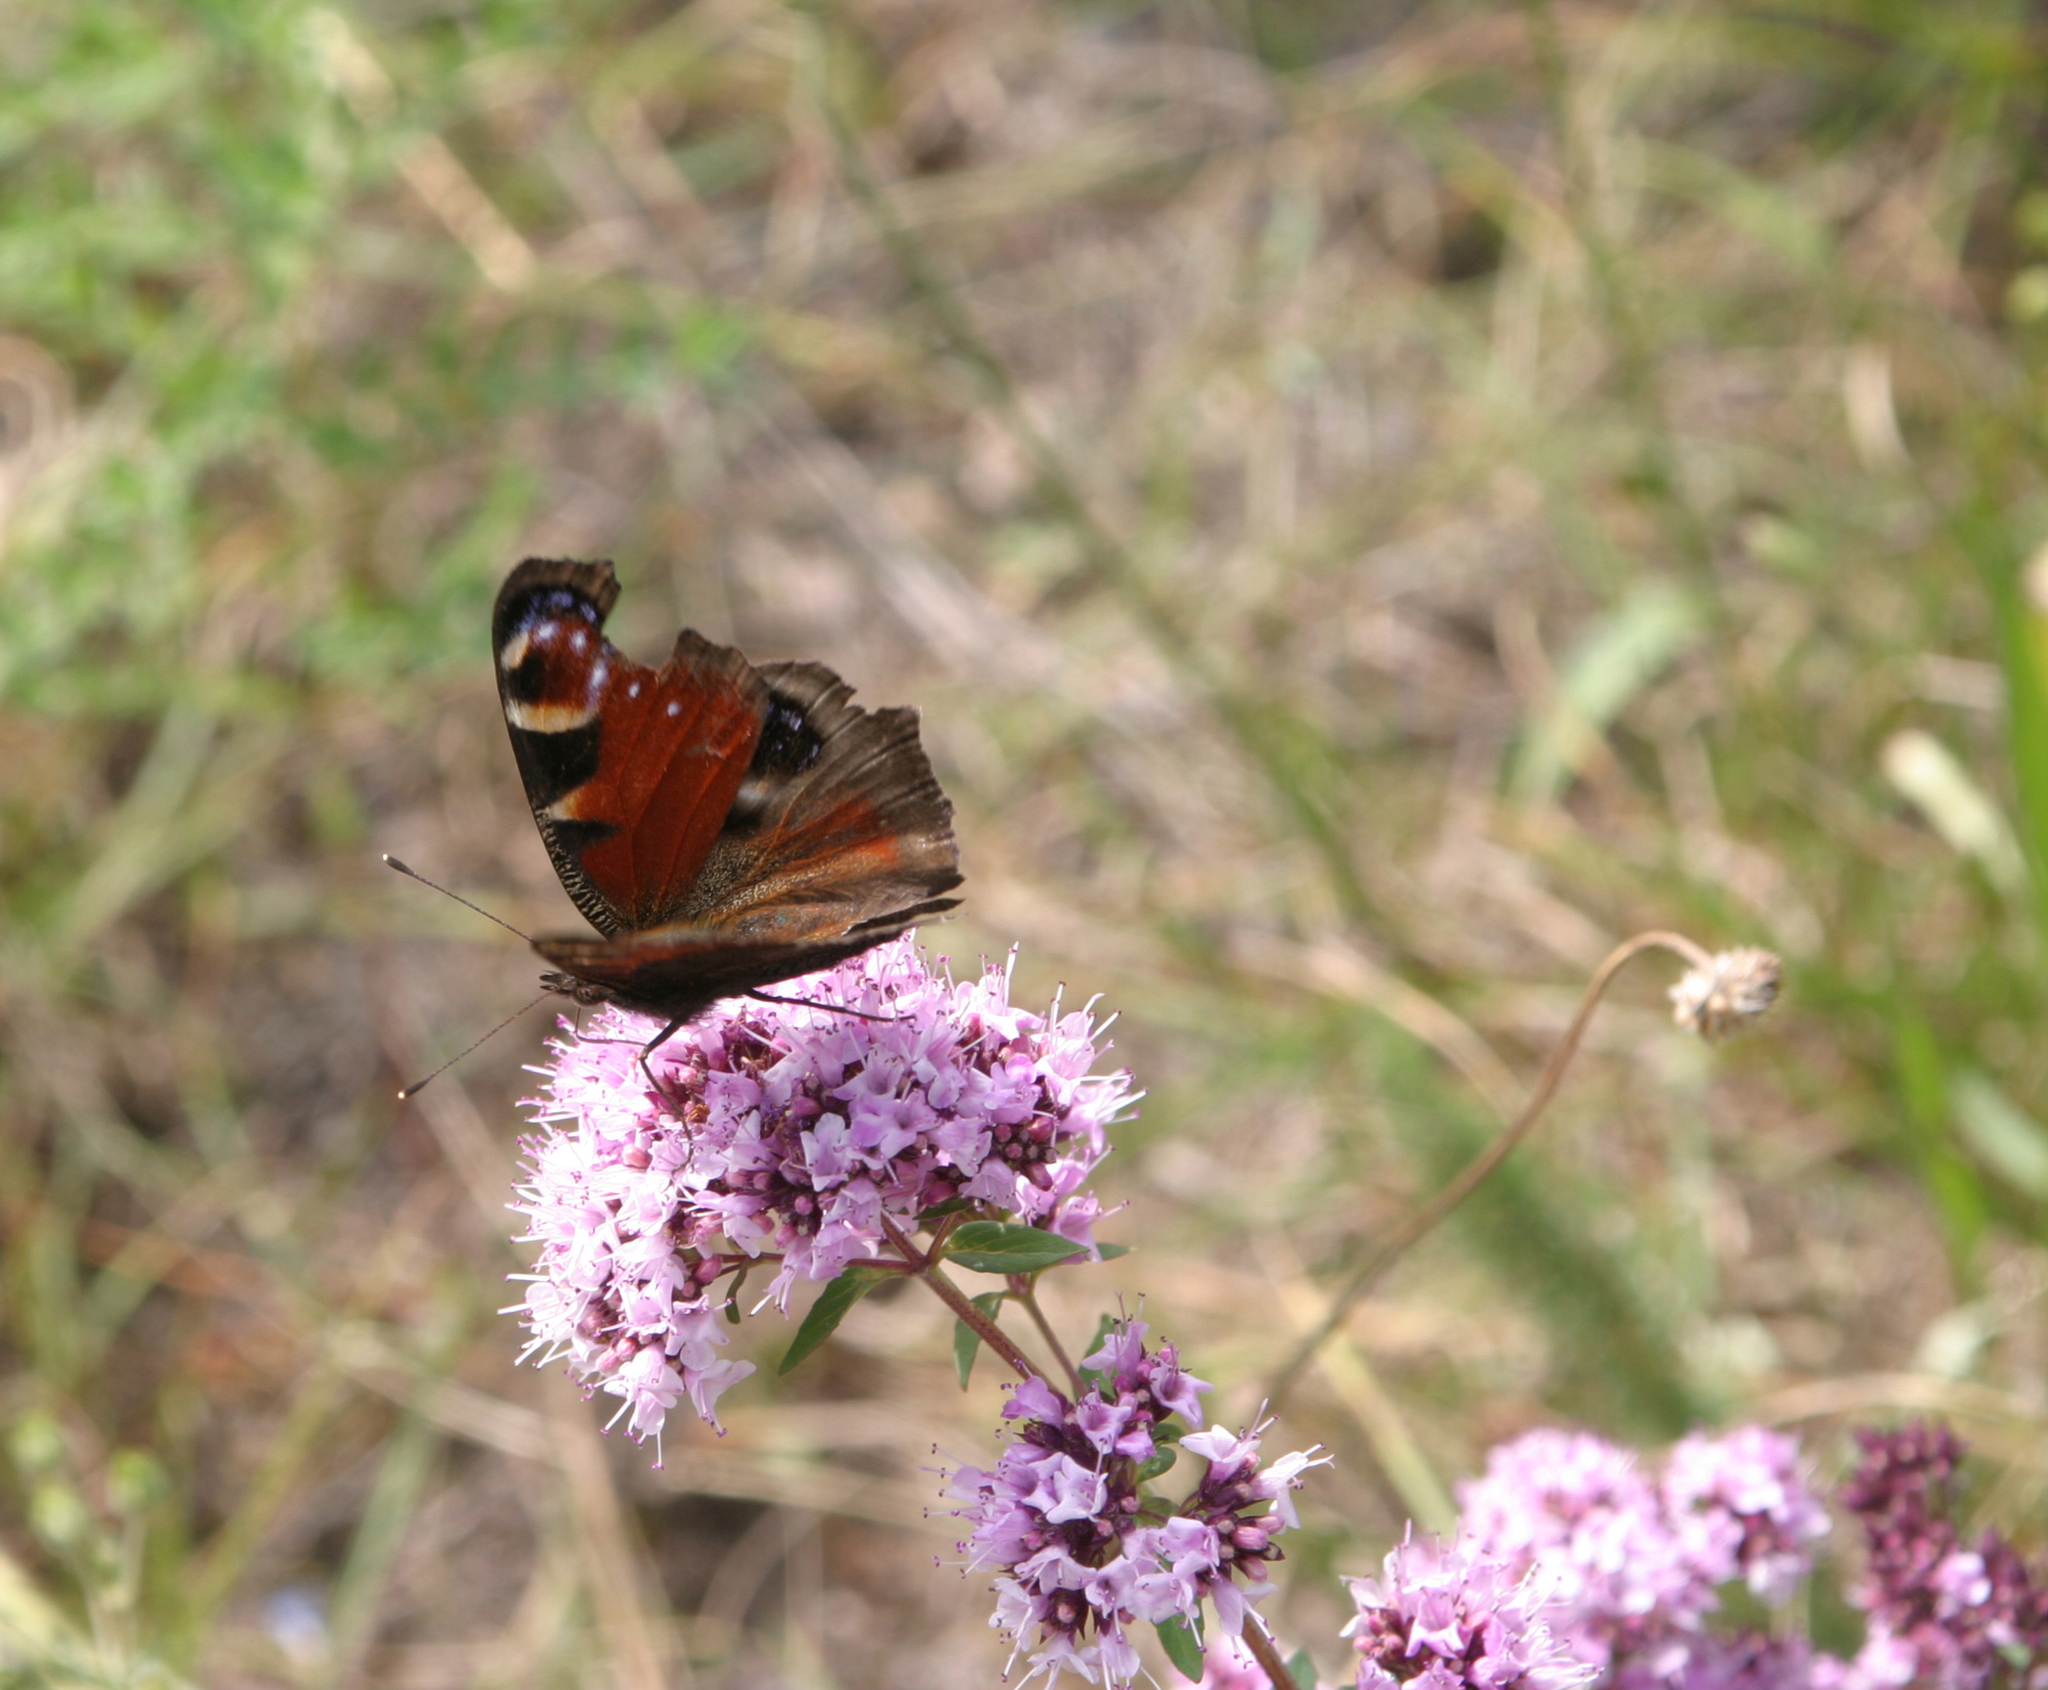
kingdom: Animalia
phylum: Arthropoda
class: Insecta
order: Lepidoptera
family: Nymphalidae
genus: Aglais
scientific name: Aglais io
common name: Peacock
